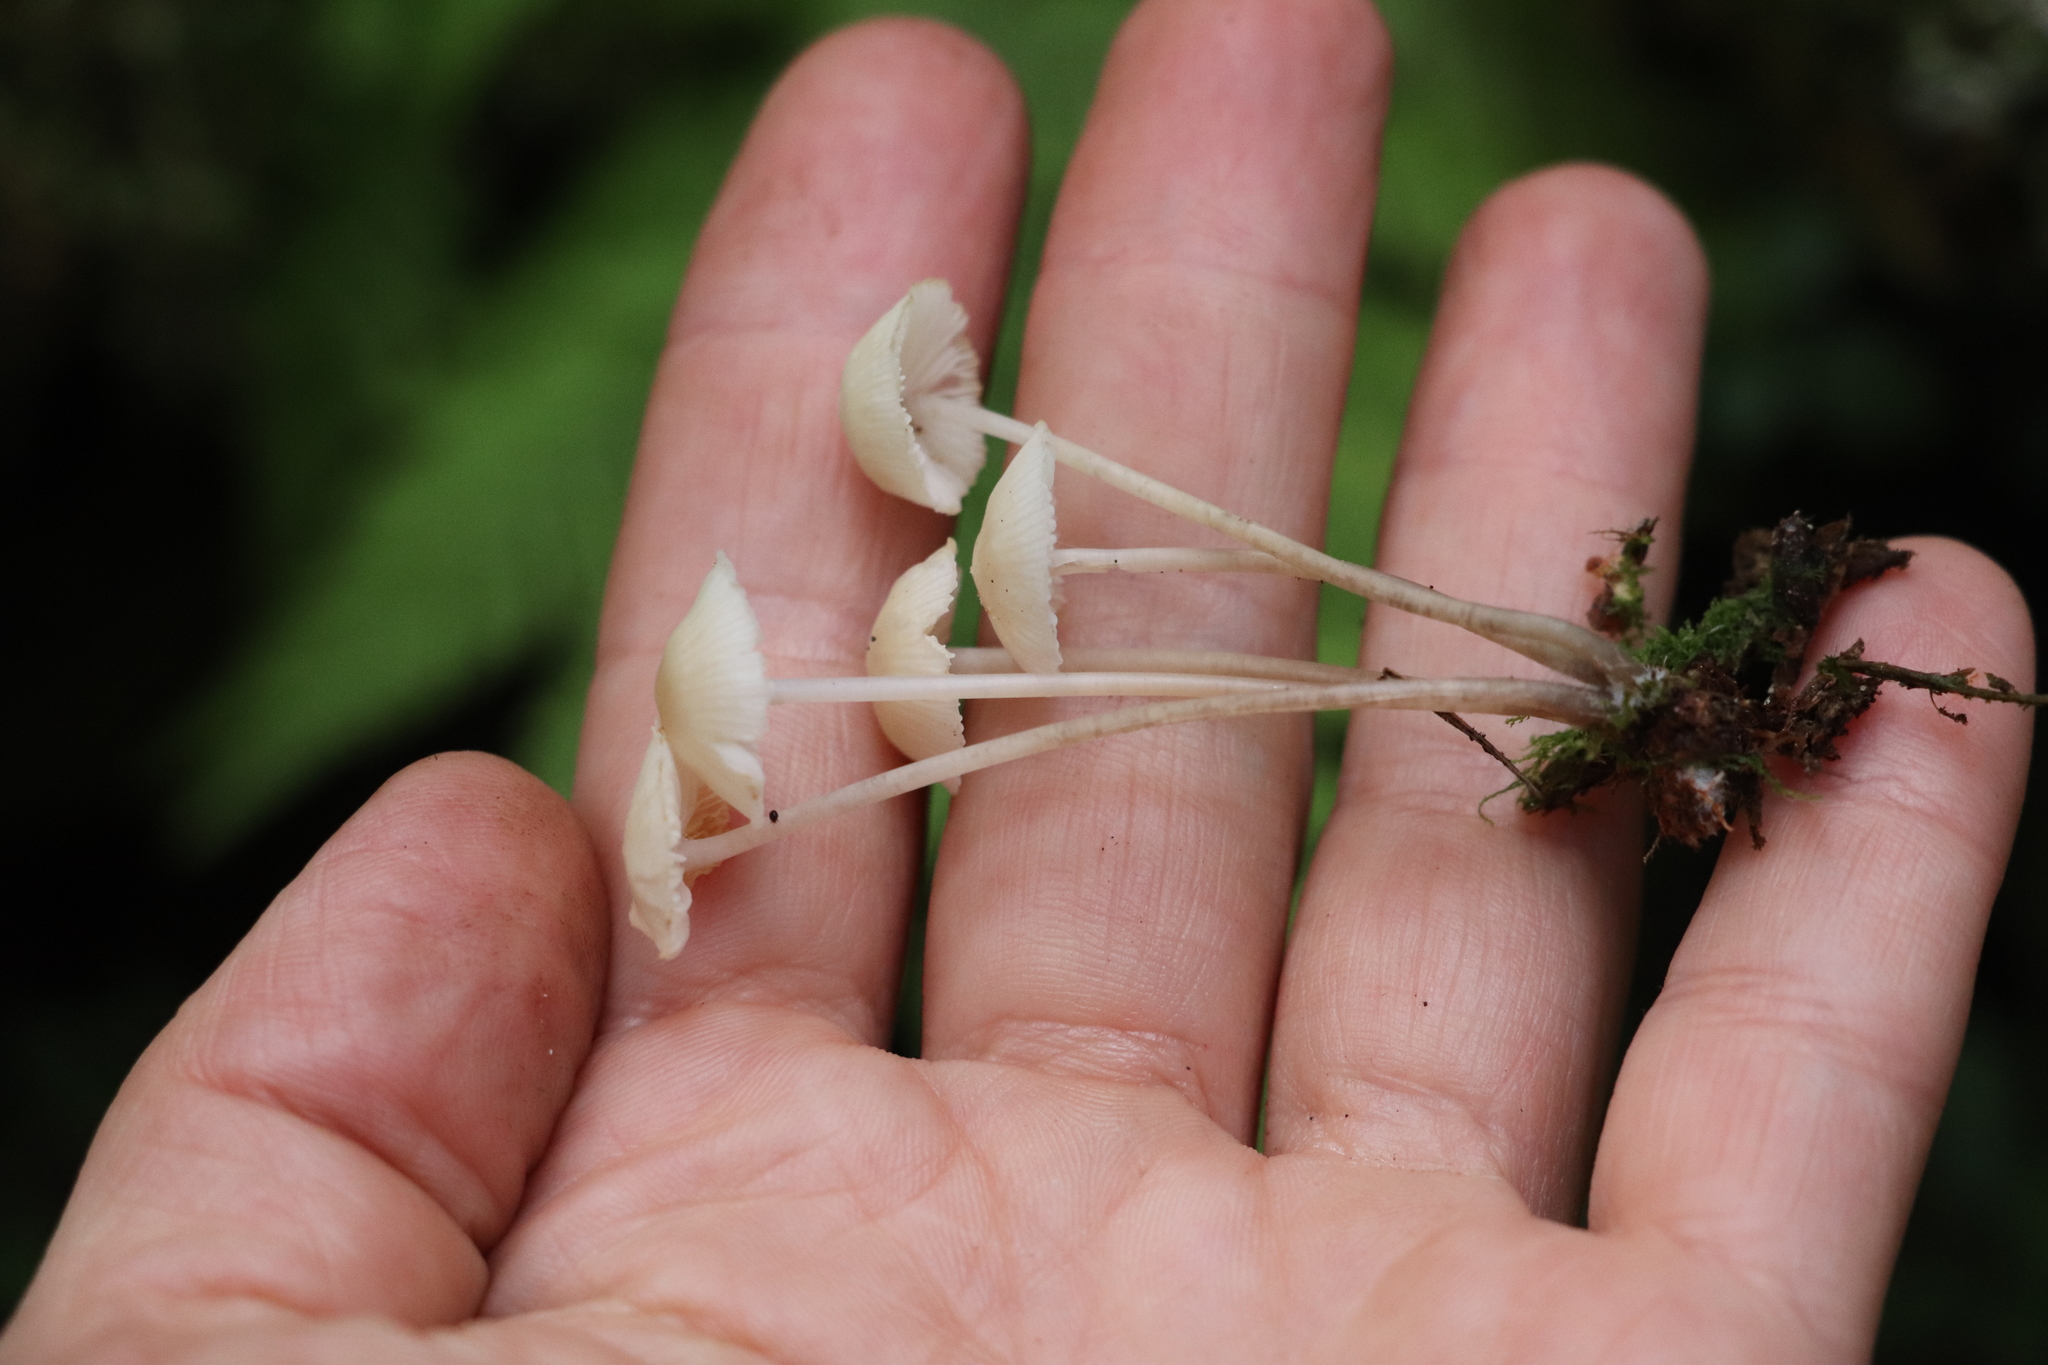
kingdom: Fungi
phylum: Basidiomycota
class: Agaricomycetes
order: Agaricales
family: Marasmiaceae
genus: Marasmius
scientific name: Marasmius wynneae
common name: Pearly parachute
